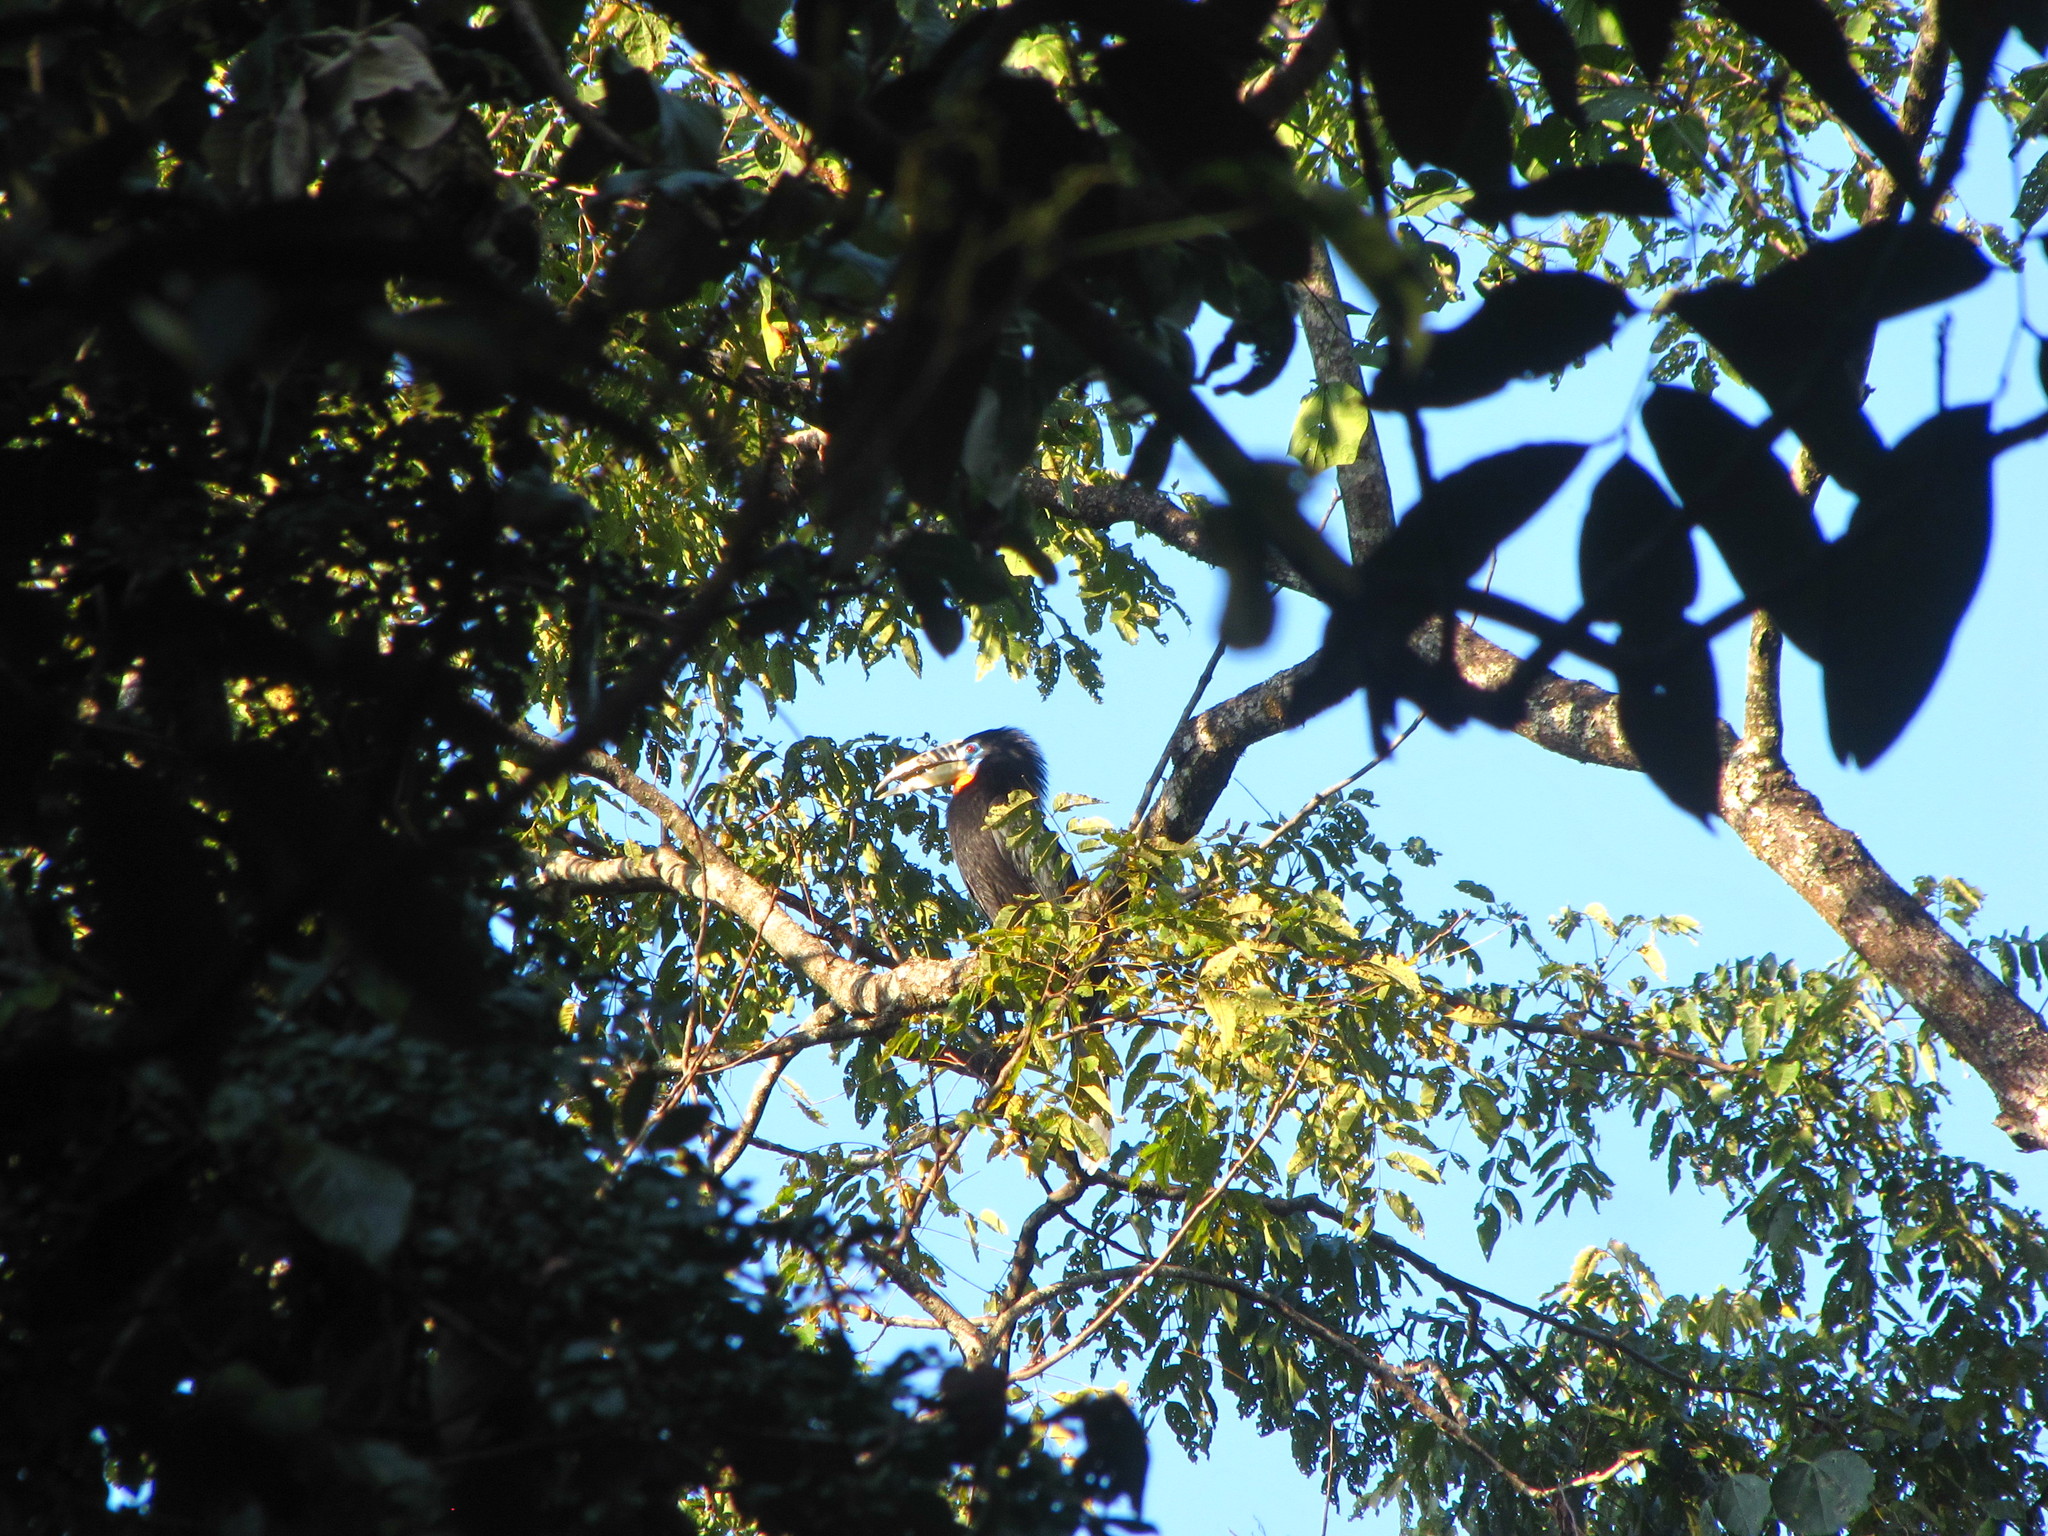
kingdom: Animalia
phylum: Chordata
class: Aves
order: Bucerotiformes
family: Bucerotidae
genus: Aceros
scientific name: Aceros nipalensis
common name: Rufous-necked hornbill
